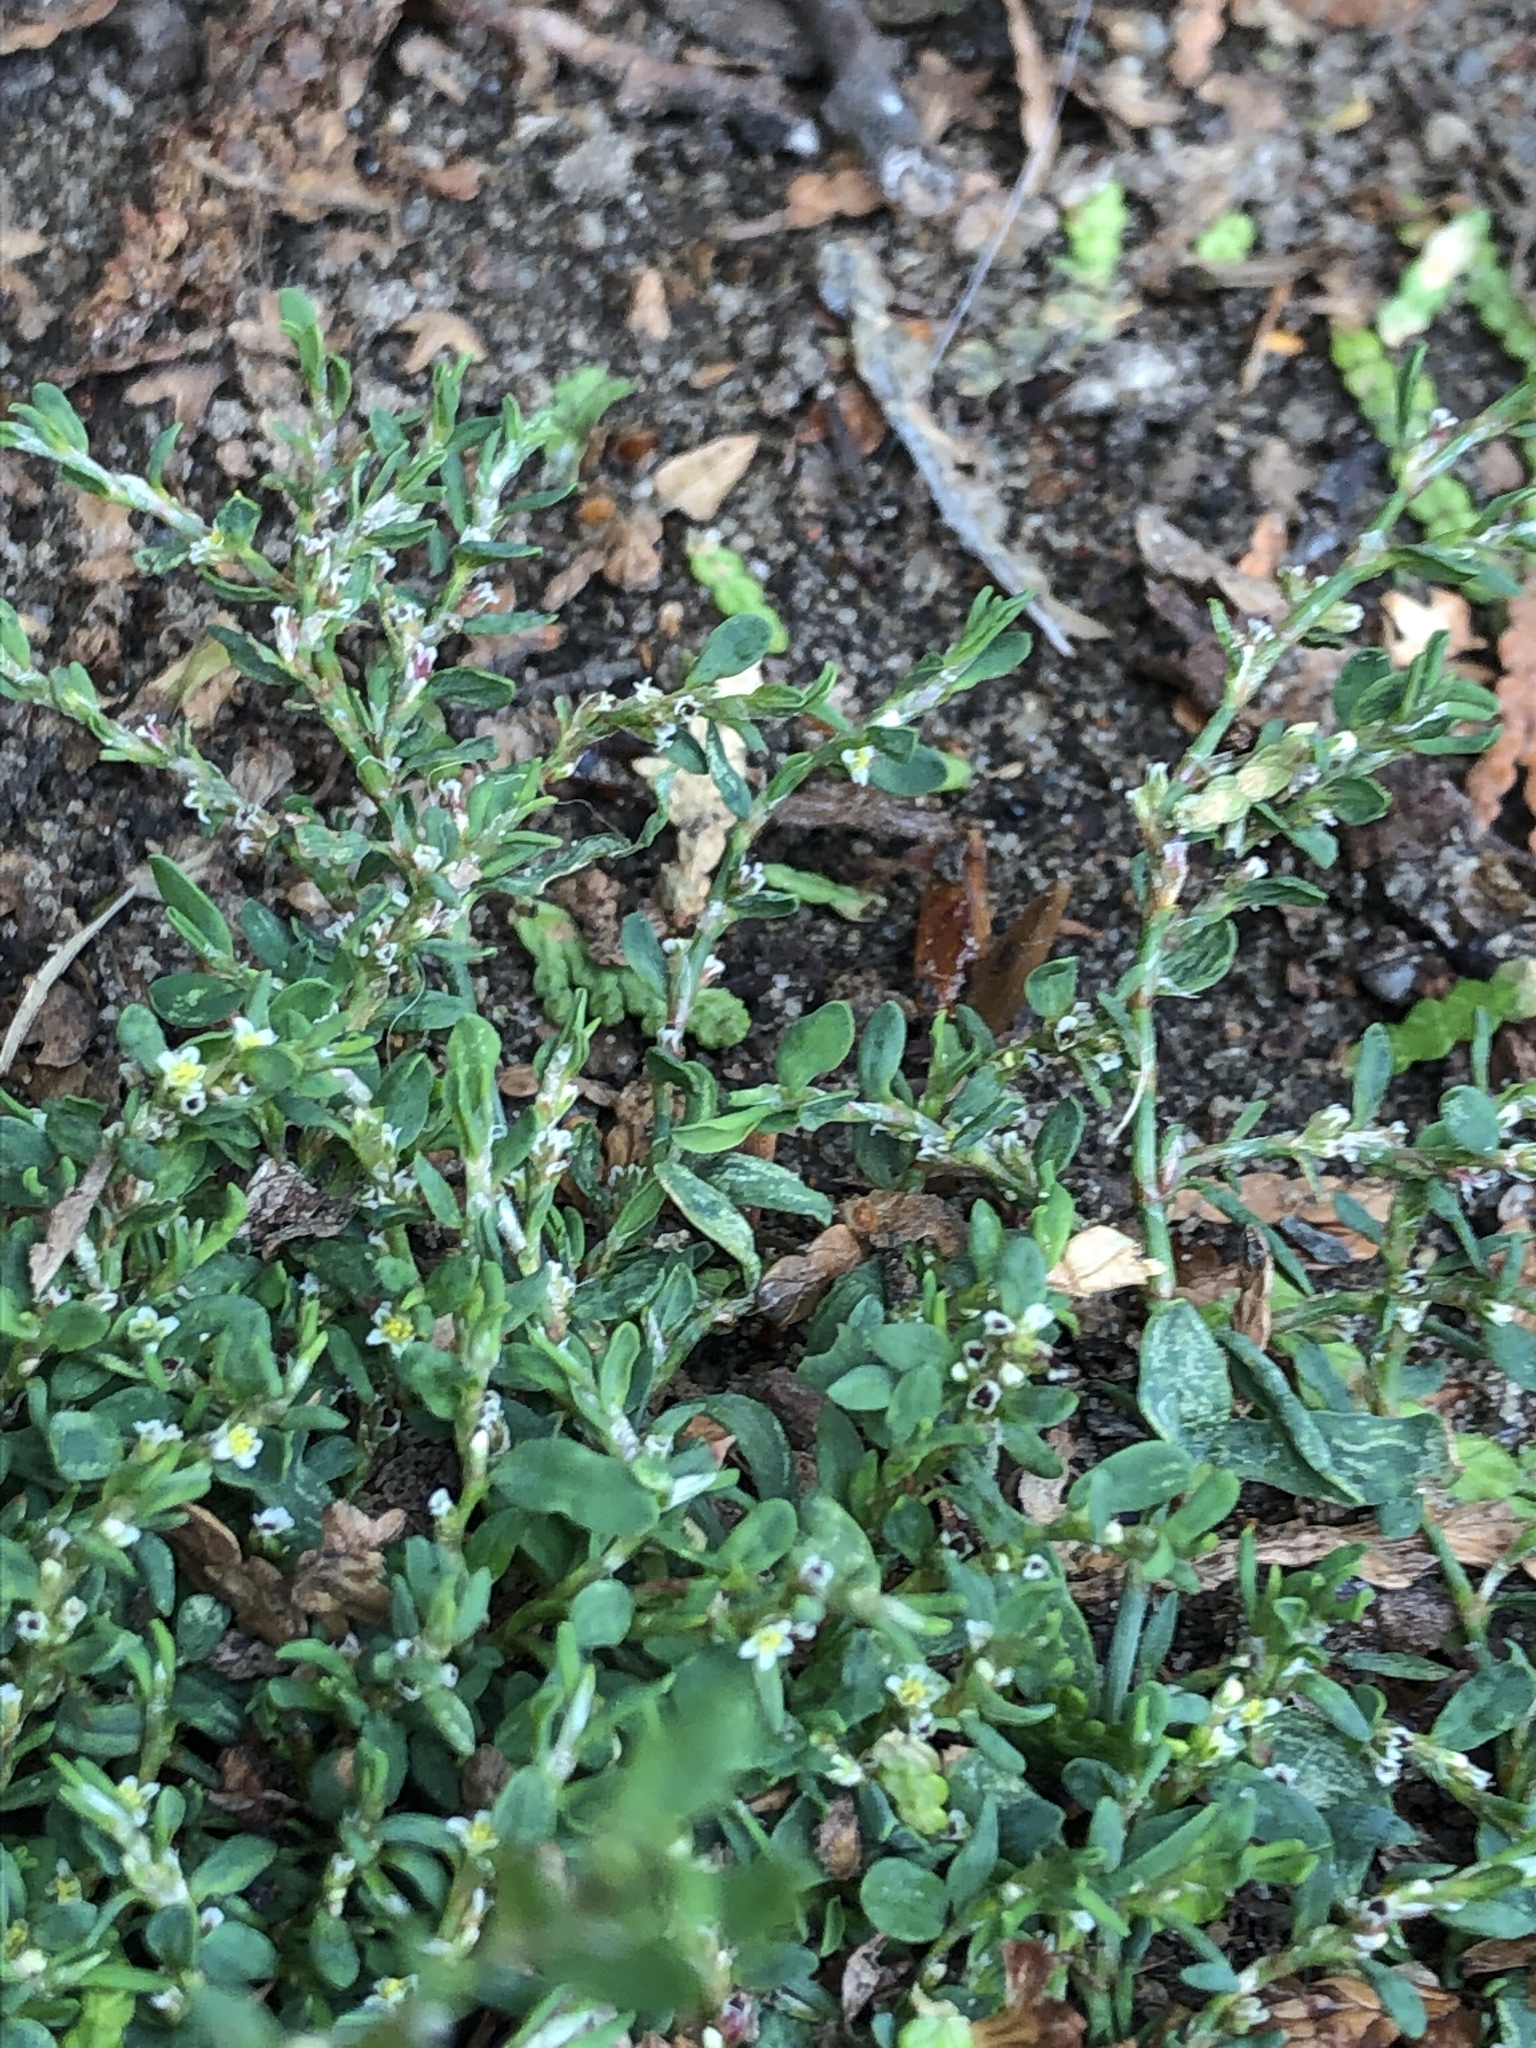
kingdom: Plantae
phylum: Tracheophyta
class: Magnoliopsida
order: Caryophyllales
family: Polygonaceae
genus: Polygonum
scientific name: Polygonum aviculare
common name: Prostrate knotweed
